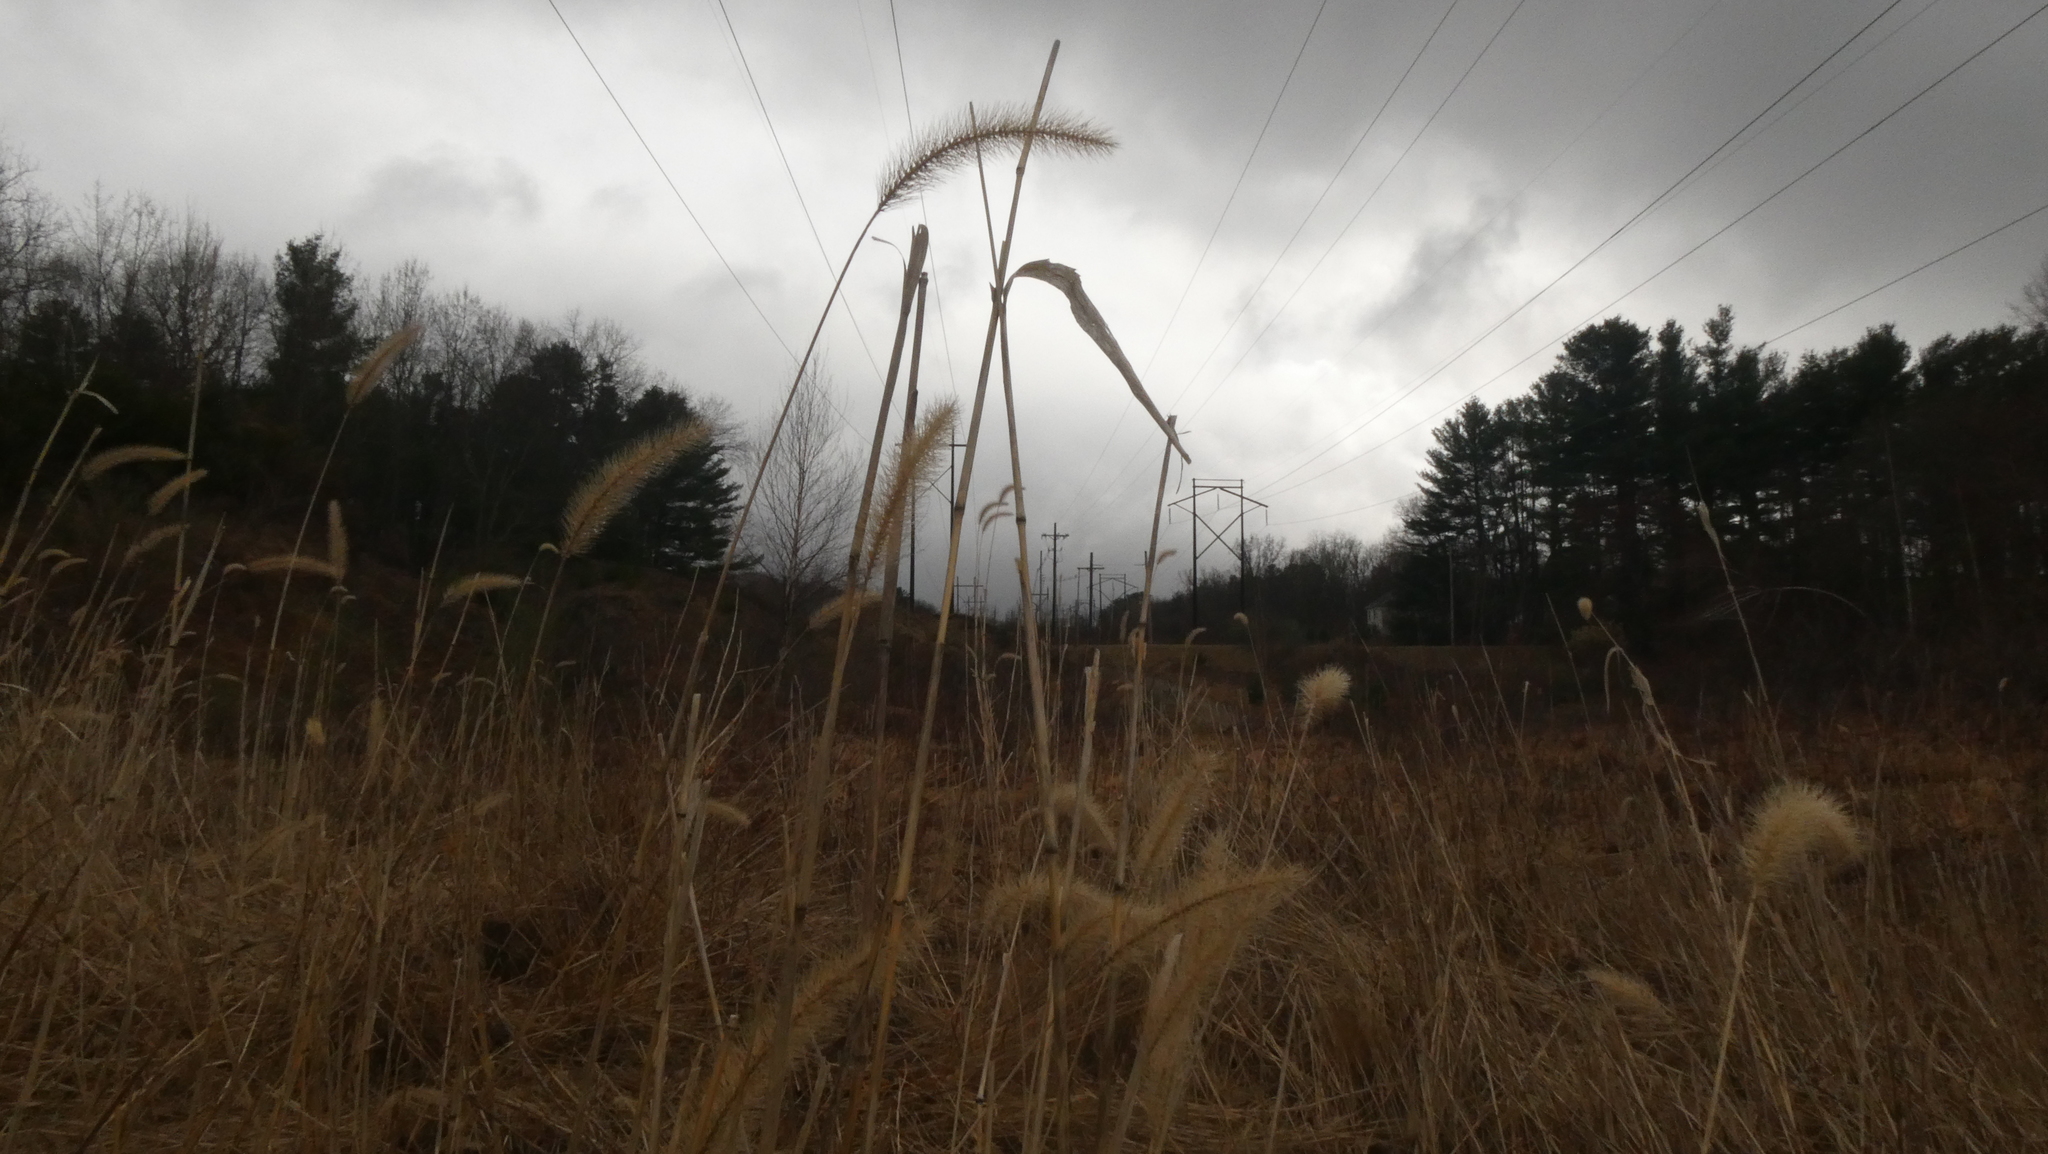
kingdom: Plantae
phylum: Tracheophyta
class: Liliopsida
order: Poales
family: Poaceae
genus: Setaria
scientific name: Setaria faberi
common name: Nodding bristle-grass
